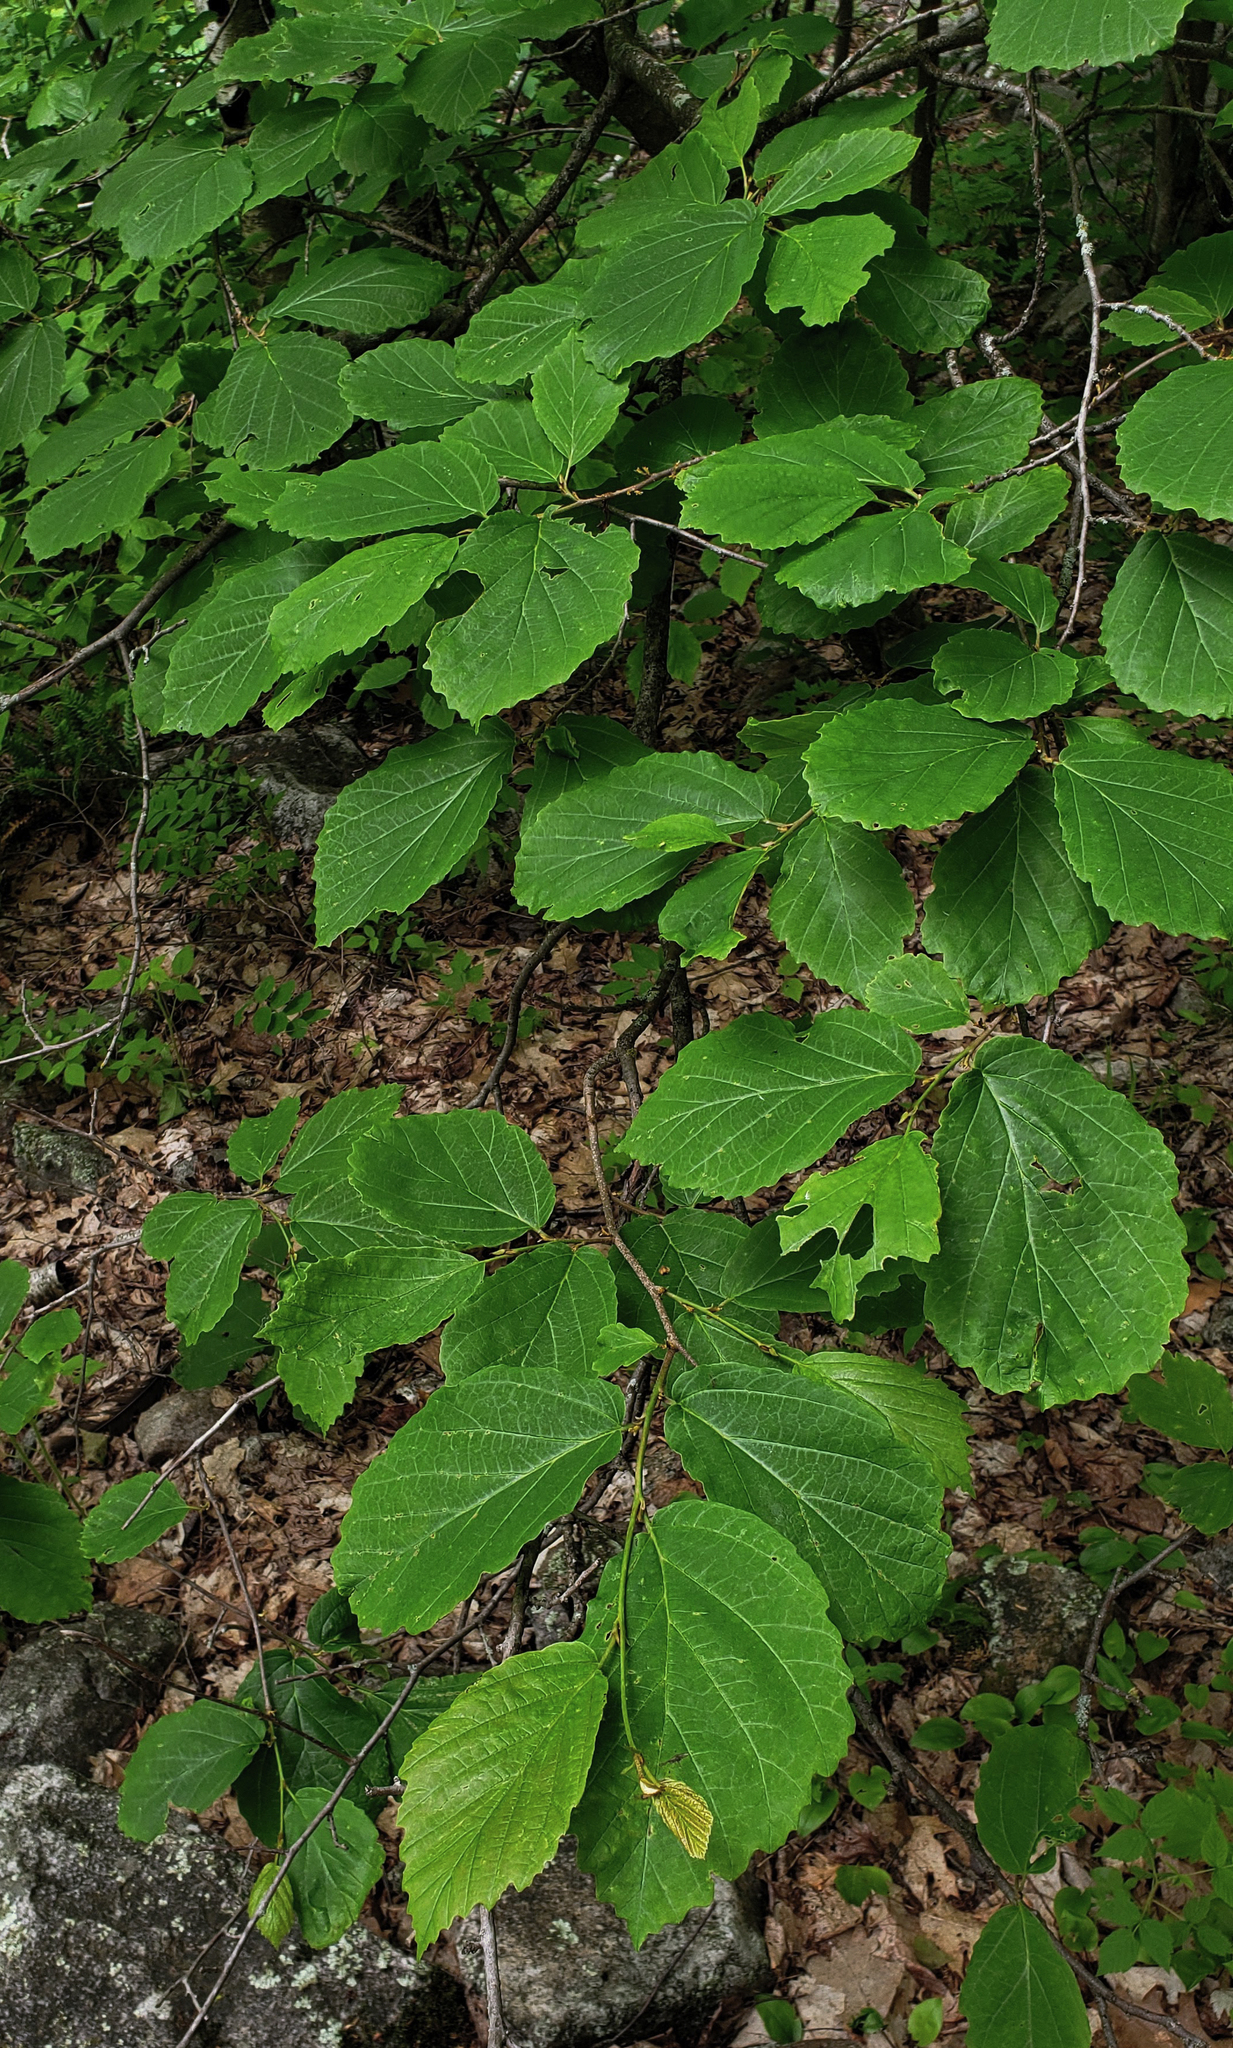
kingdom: Plantae
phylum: Tracheophyta
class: Magnoliopsida
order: Saxifragales
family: Hamamelidaceae
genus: Hamamelis
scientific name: Hamamelis virginiana
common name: Witch-hazel
